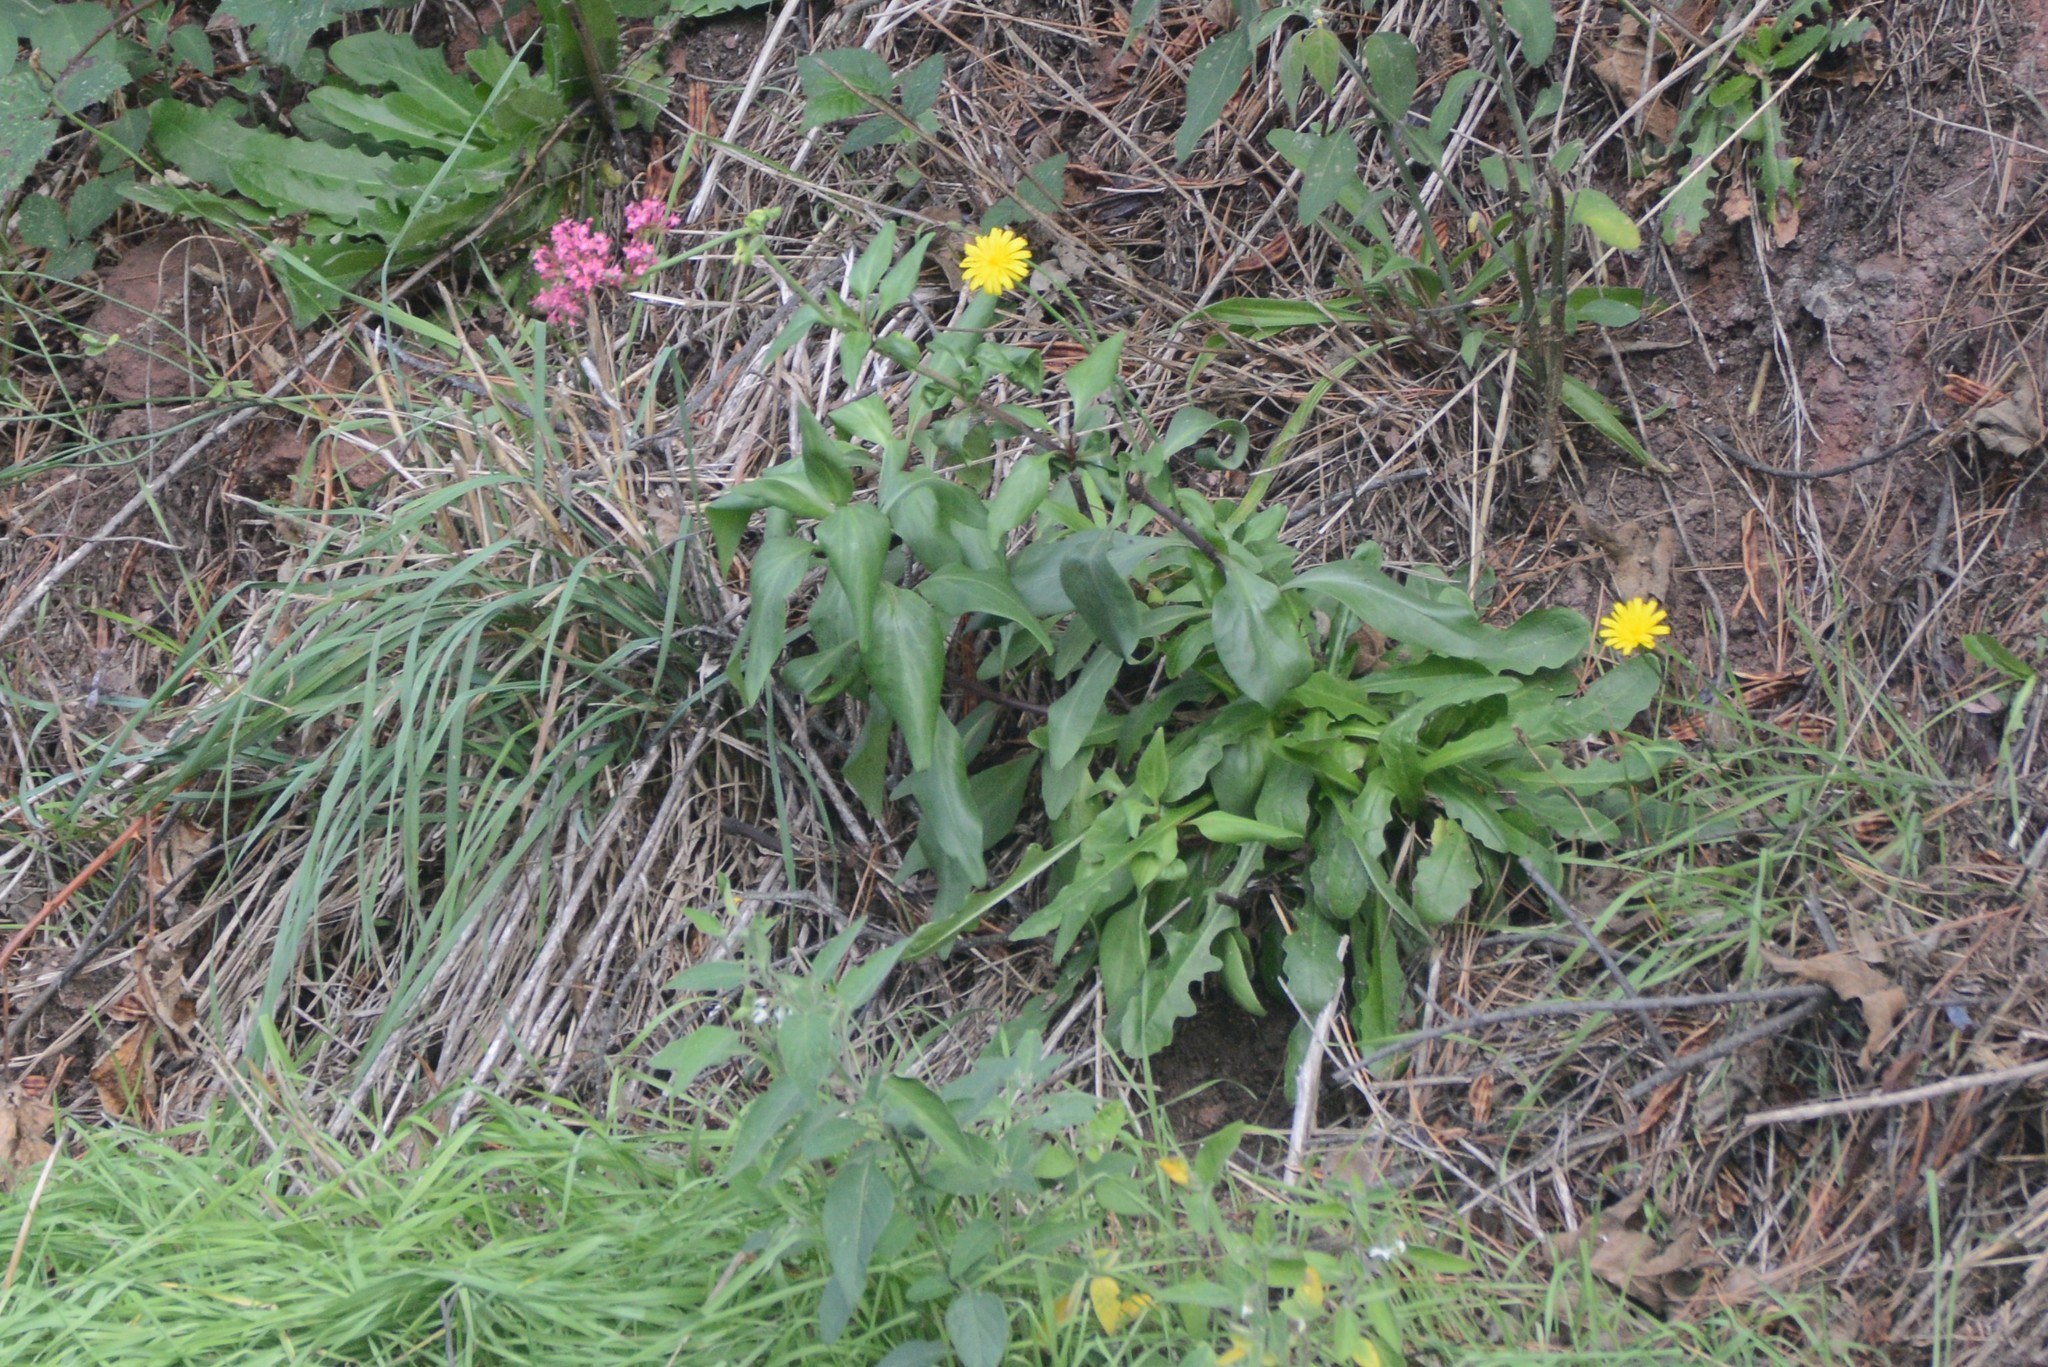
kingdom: Plantae
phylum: Tracheophyta
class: Magnoliopsida
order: Dipsacales
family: Caprifoliaceae
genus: Centranthus
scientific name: Centranthus ruber
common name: Red valerian
